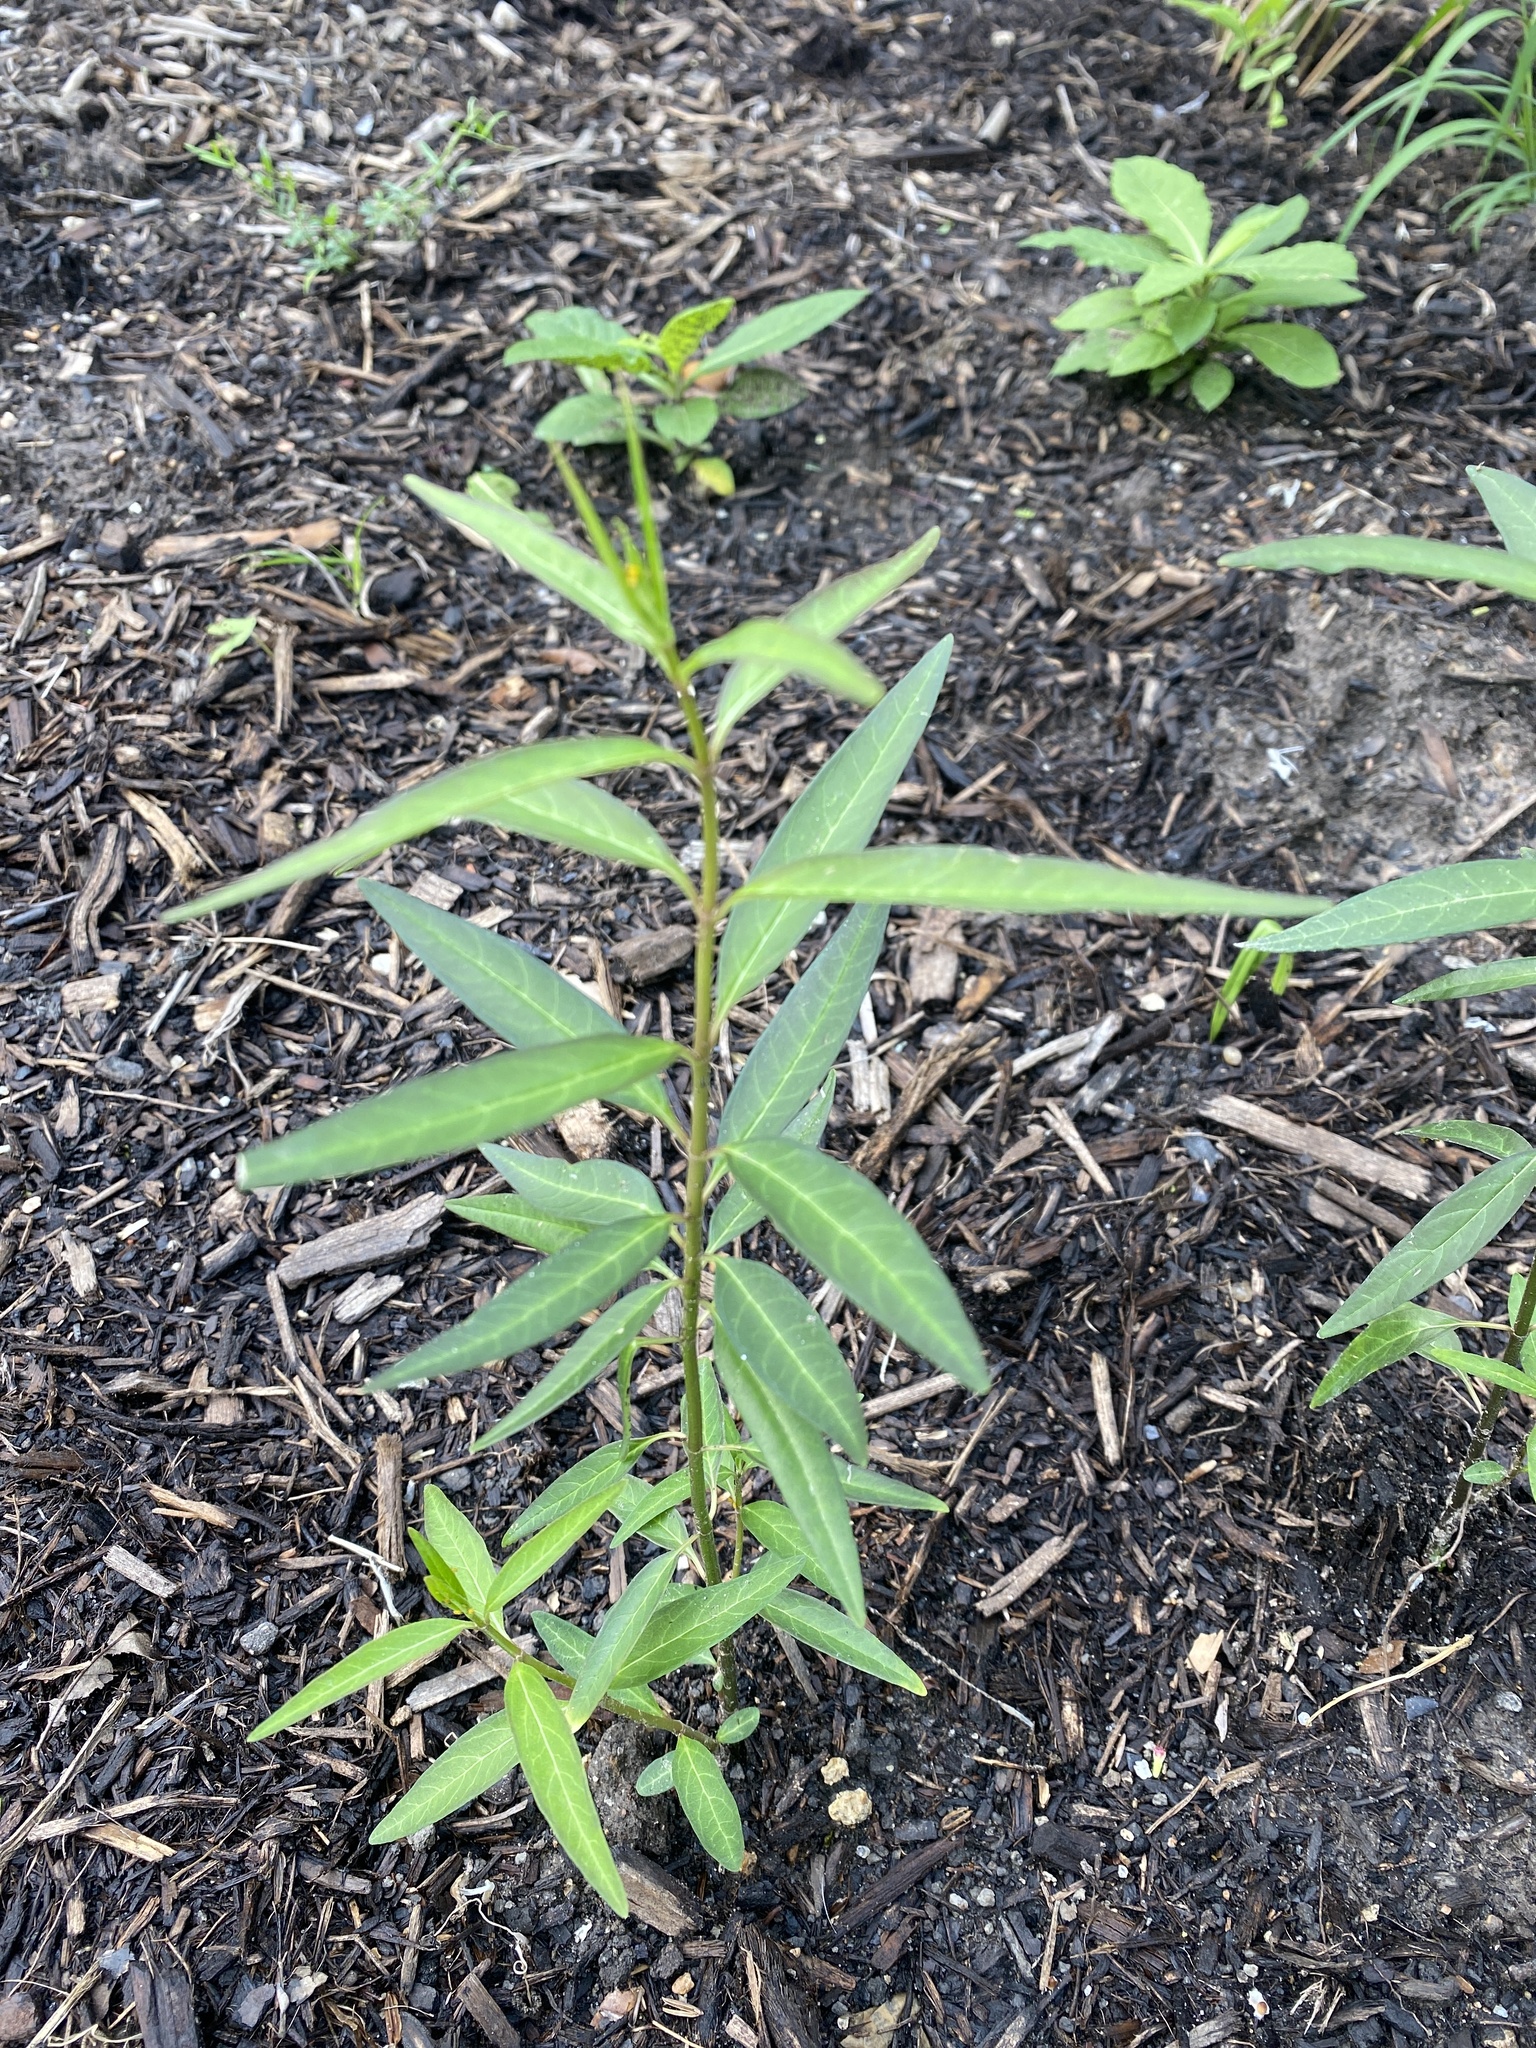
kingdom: Plantae
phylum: Tracheophyta
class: Magnoliopsida
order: Gentianales
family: Apocynaceae
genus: Asclepias
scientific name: Asclepias perennis
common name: Smooth-seed milkweed
